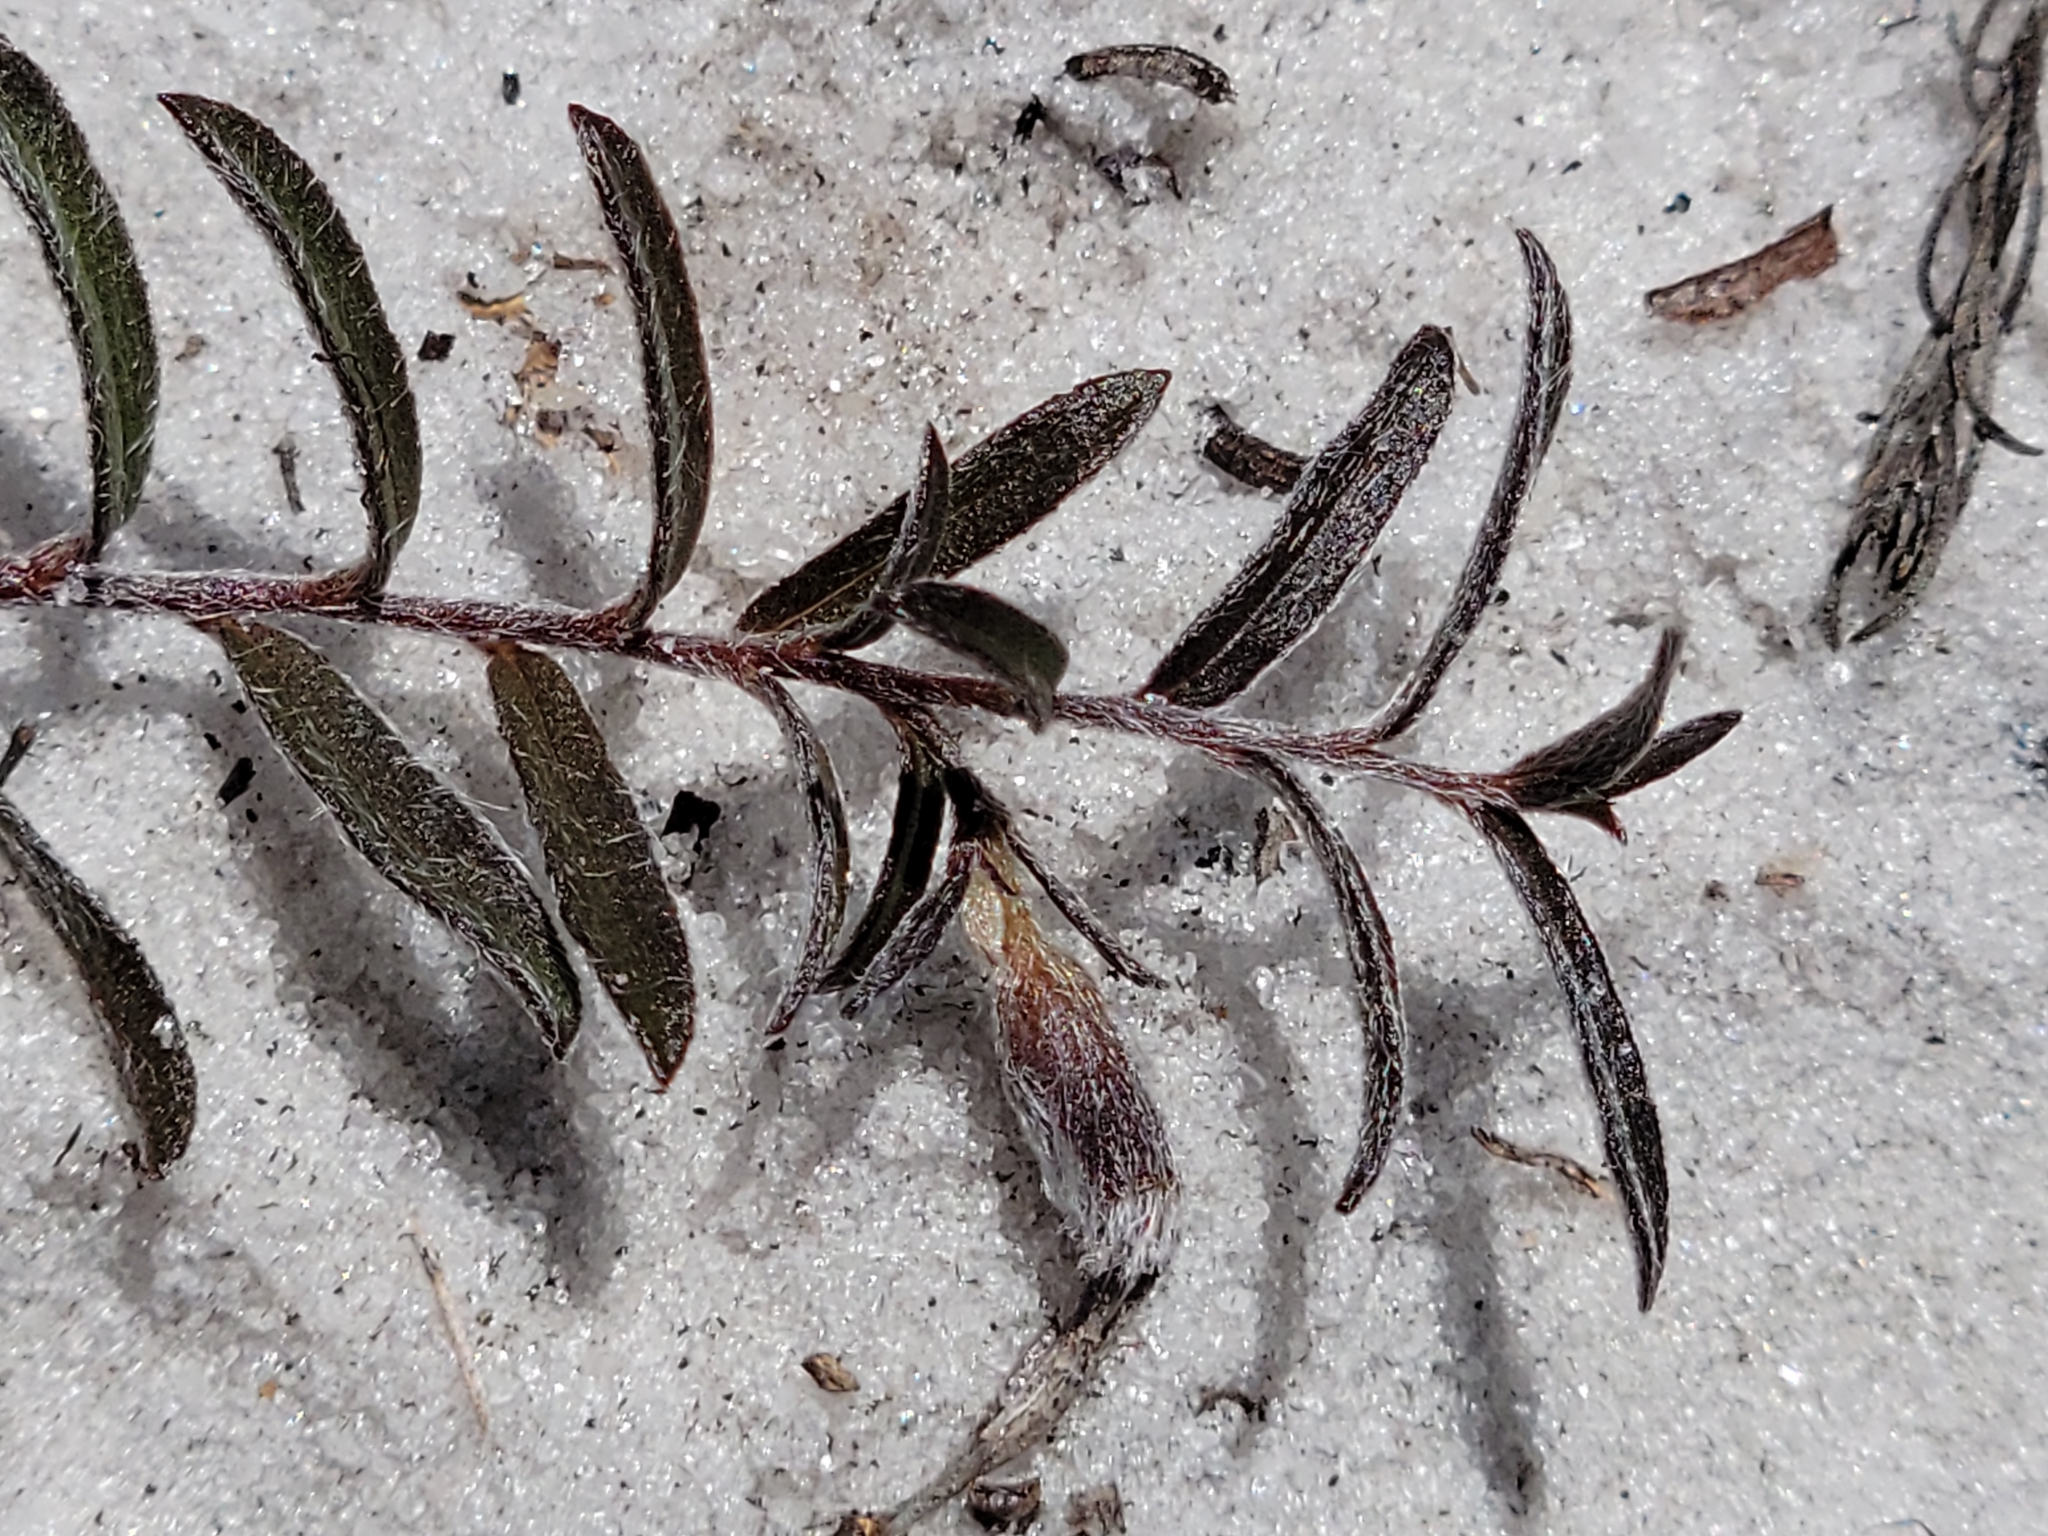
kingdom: Plantae
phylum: Tracheophyta
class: Magnoliopsida
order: Solanales
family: Convolvulaceae
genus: Stylisma
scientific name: Stylisma abdita
